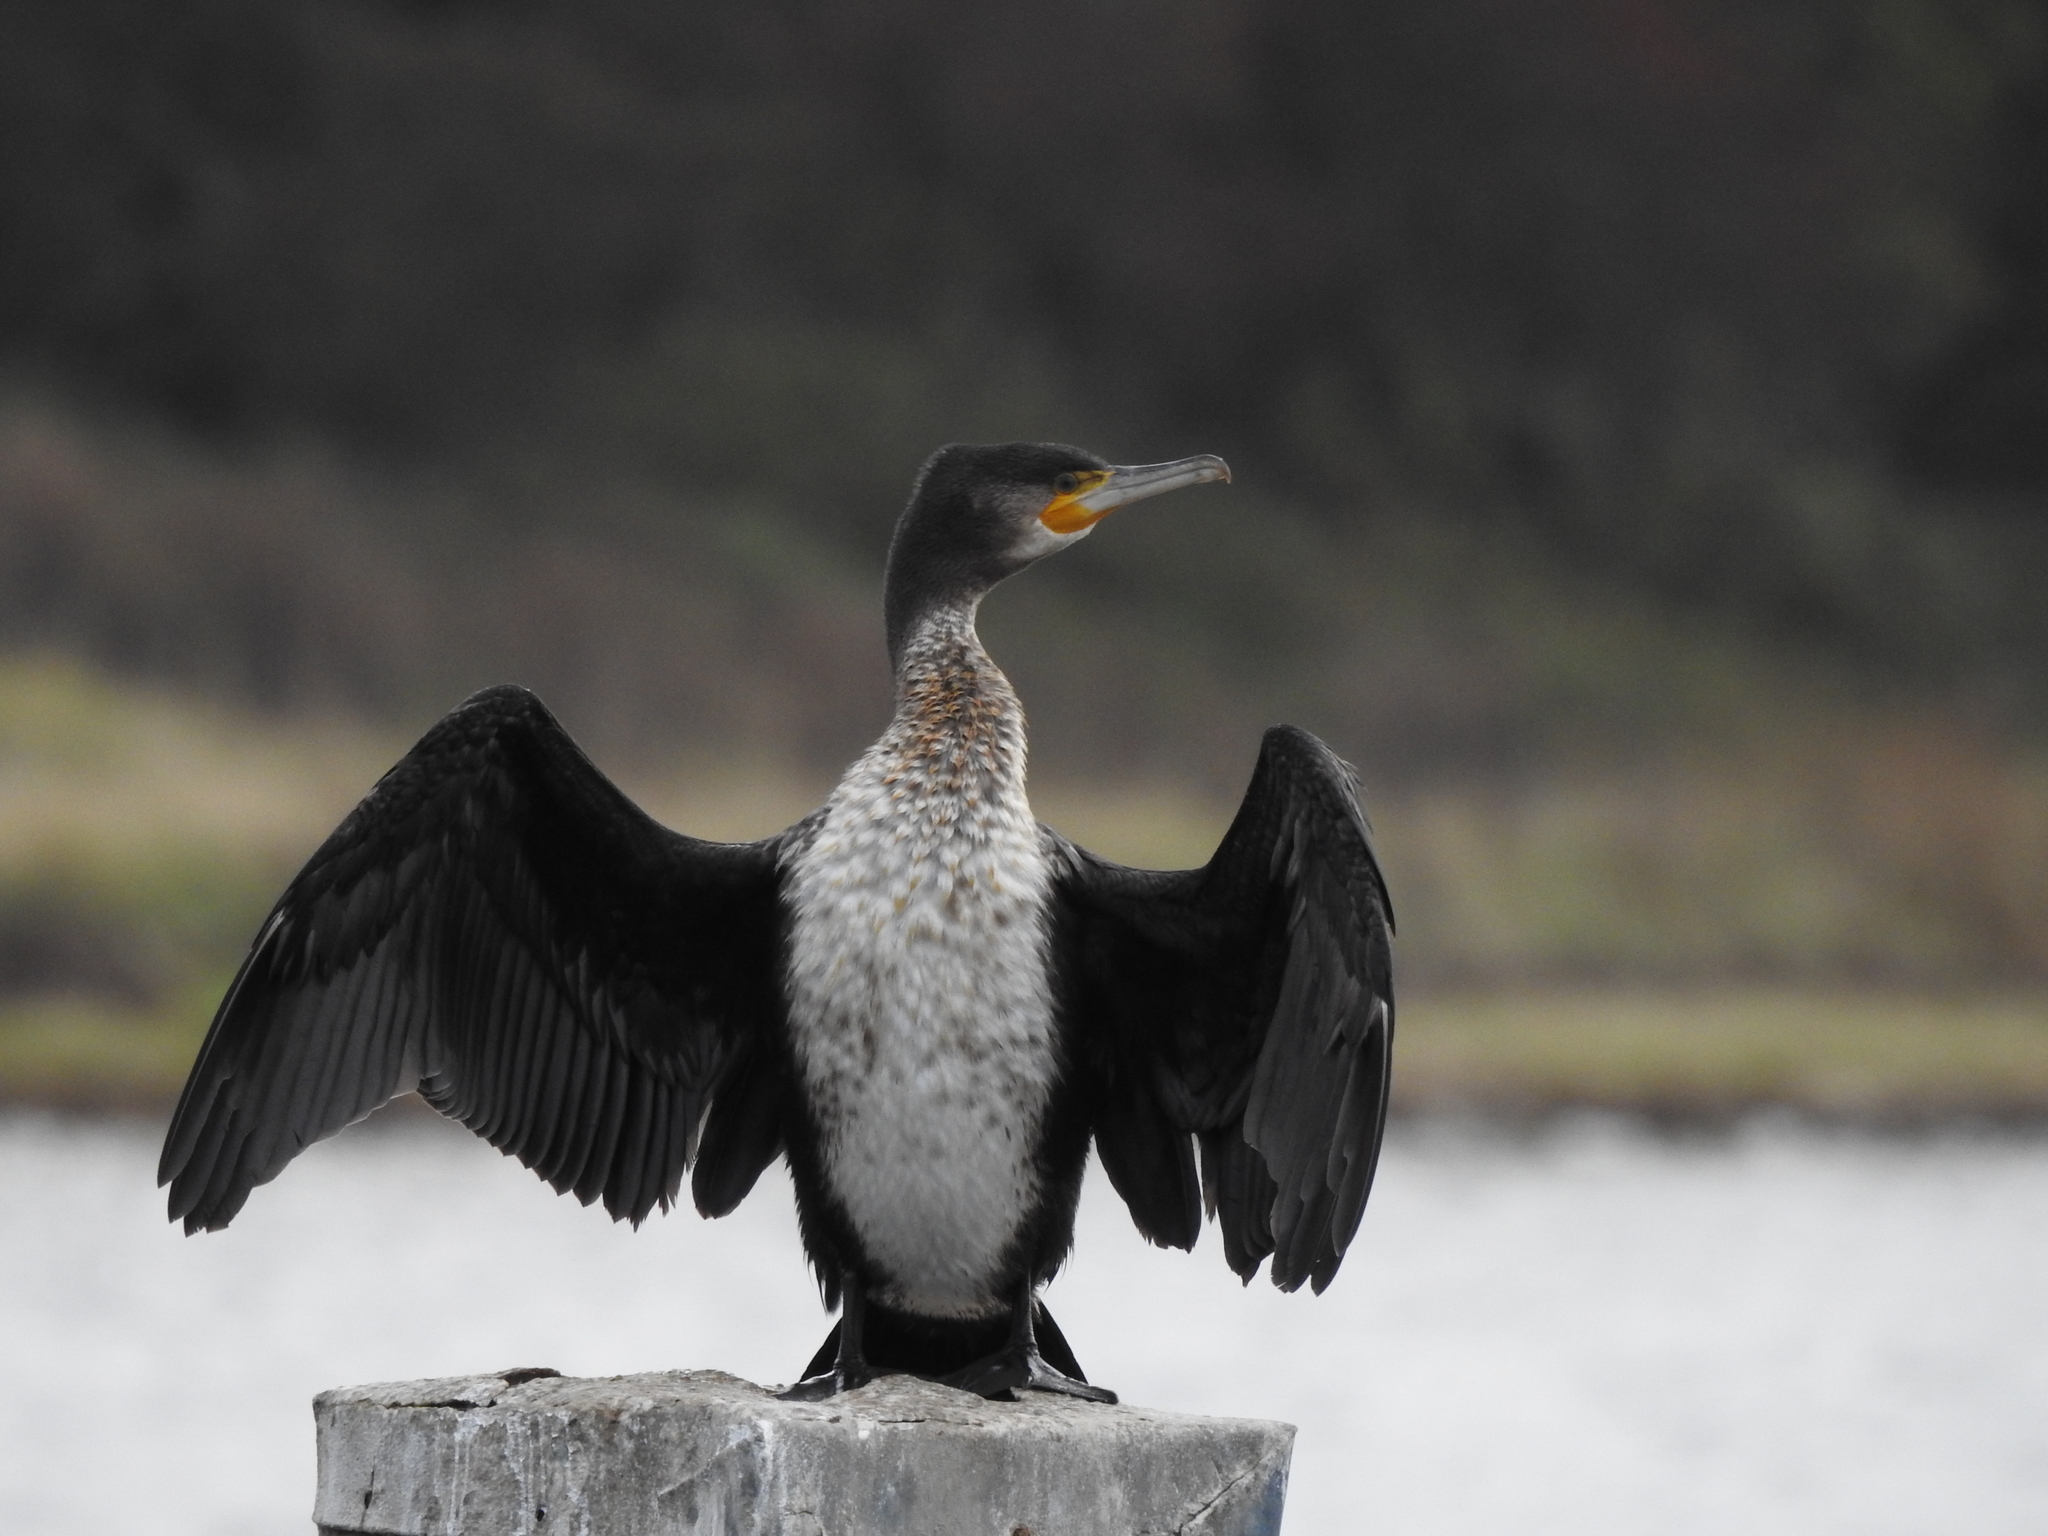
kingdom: Animalia
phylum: Chordata
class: Aves
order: Suliformes
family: Phalacrocoracidae
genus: Phalacrocorax
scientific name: Phalacrocorax carbo
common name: Great cormorant
